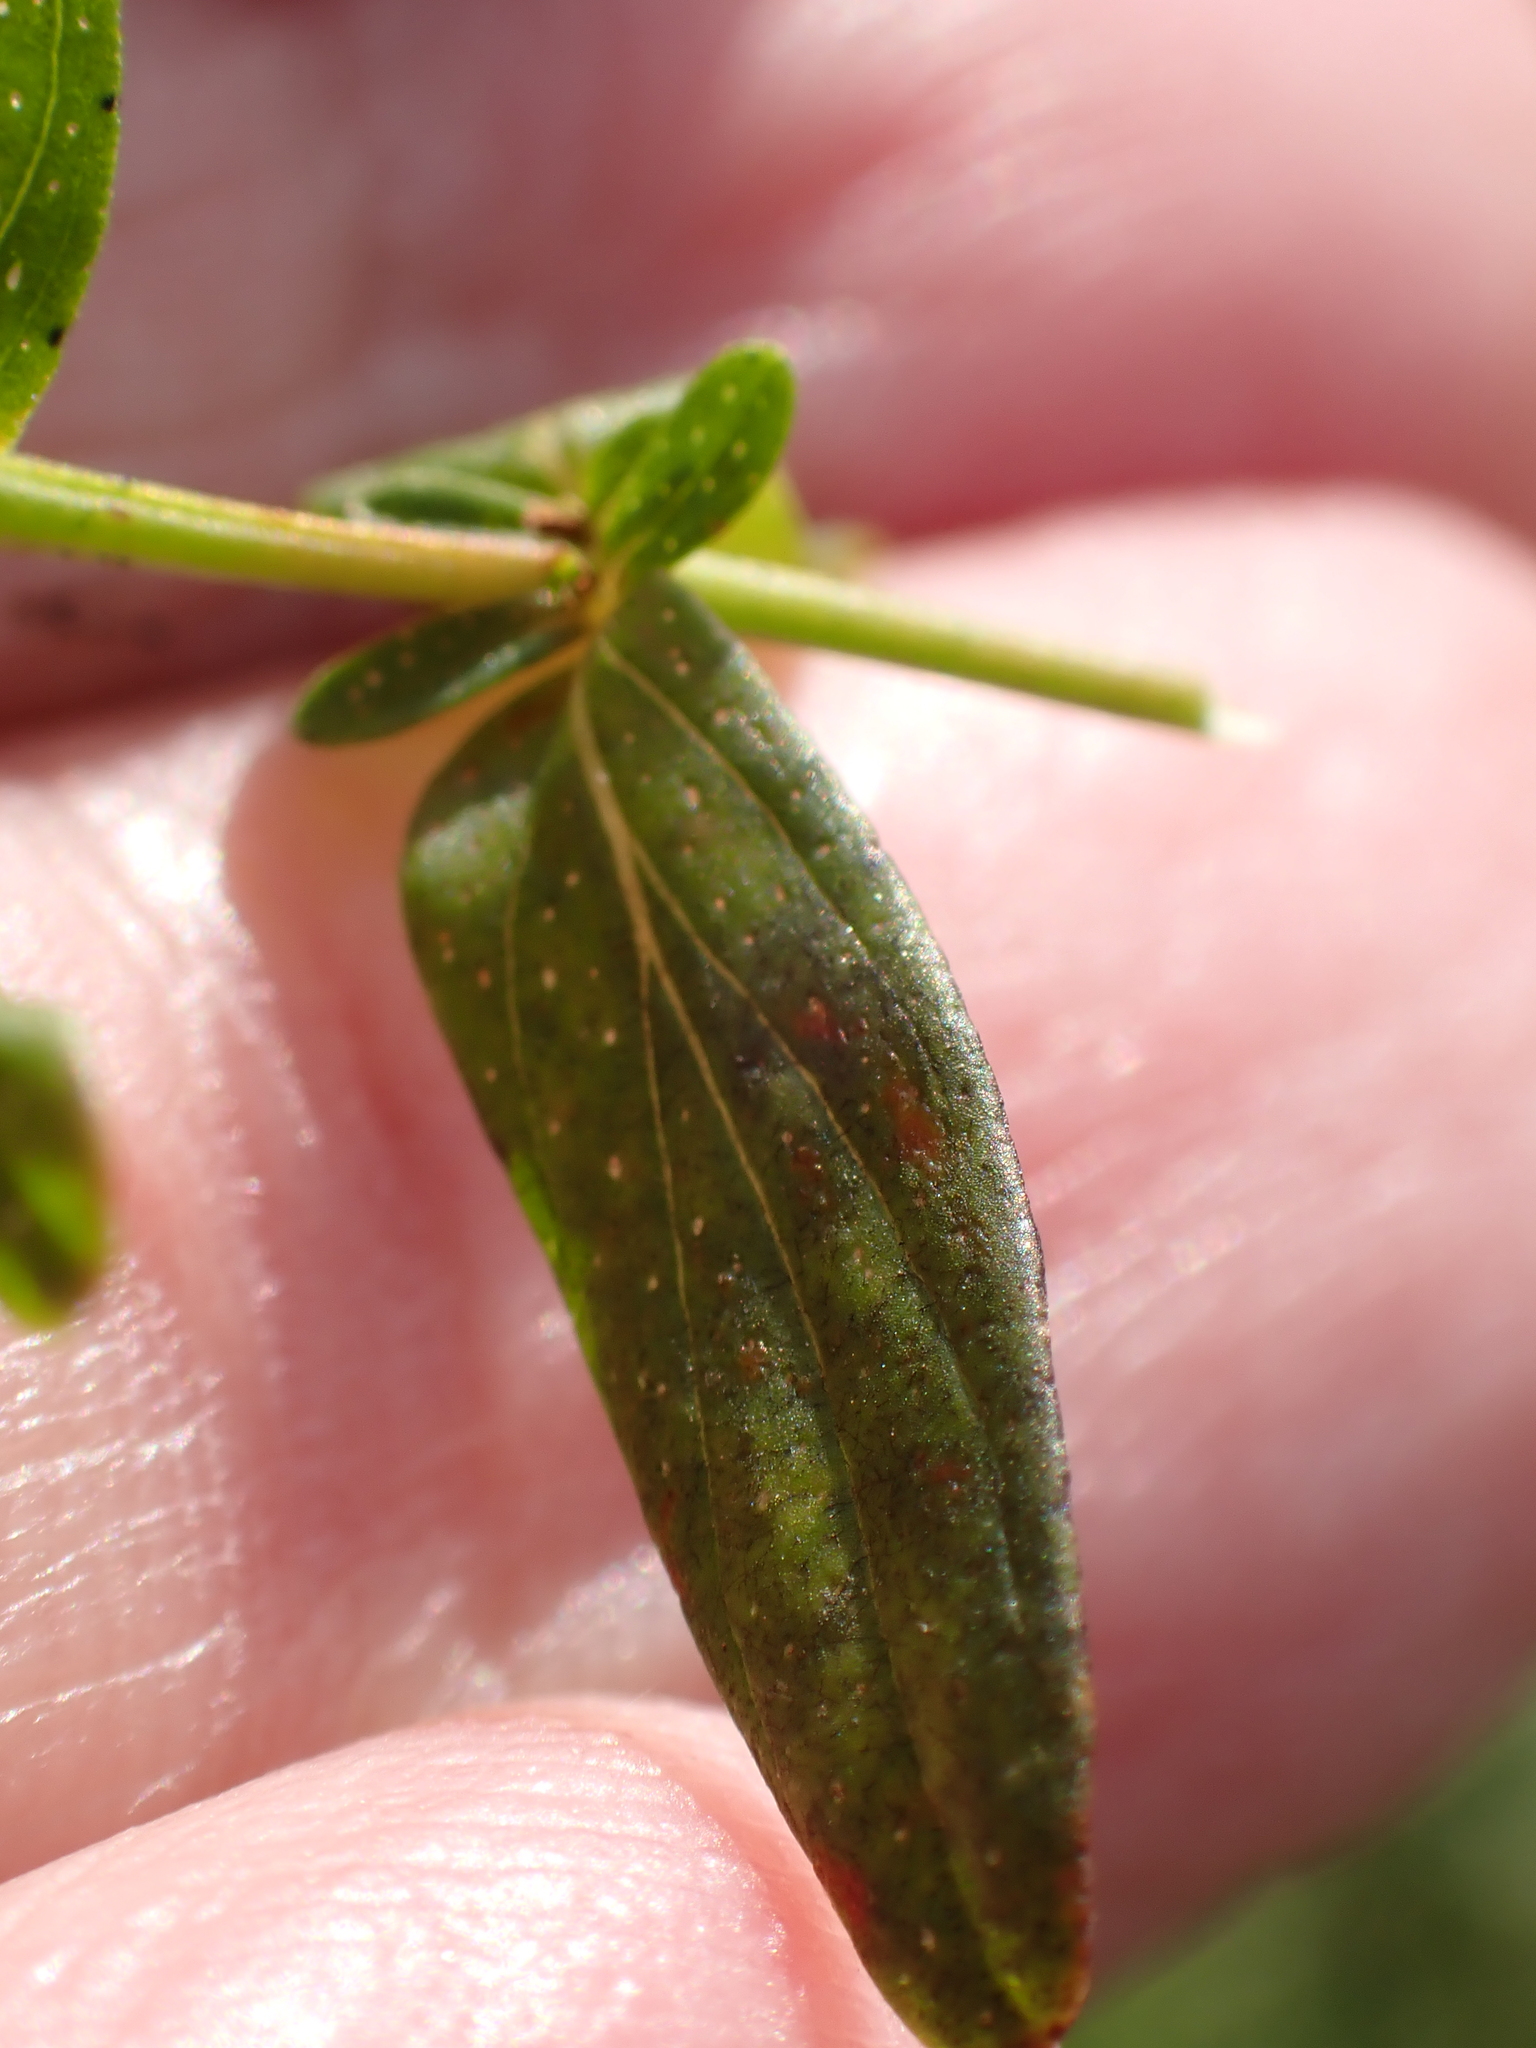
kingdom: Plantae
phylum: Tracheophyta
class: Magnoliopsida
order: Malpighiales
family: Hypericaceae
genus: Hypericum
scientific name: Hypericum perforatum
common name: Common st. johnswort
